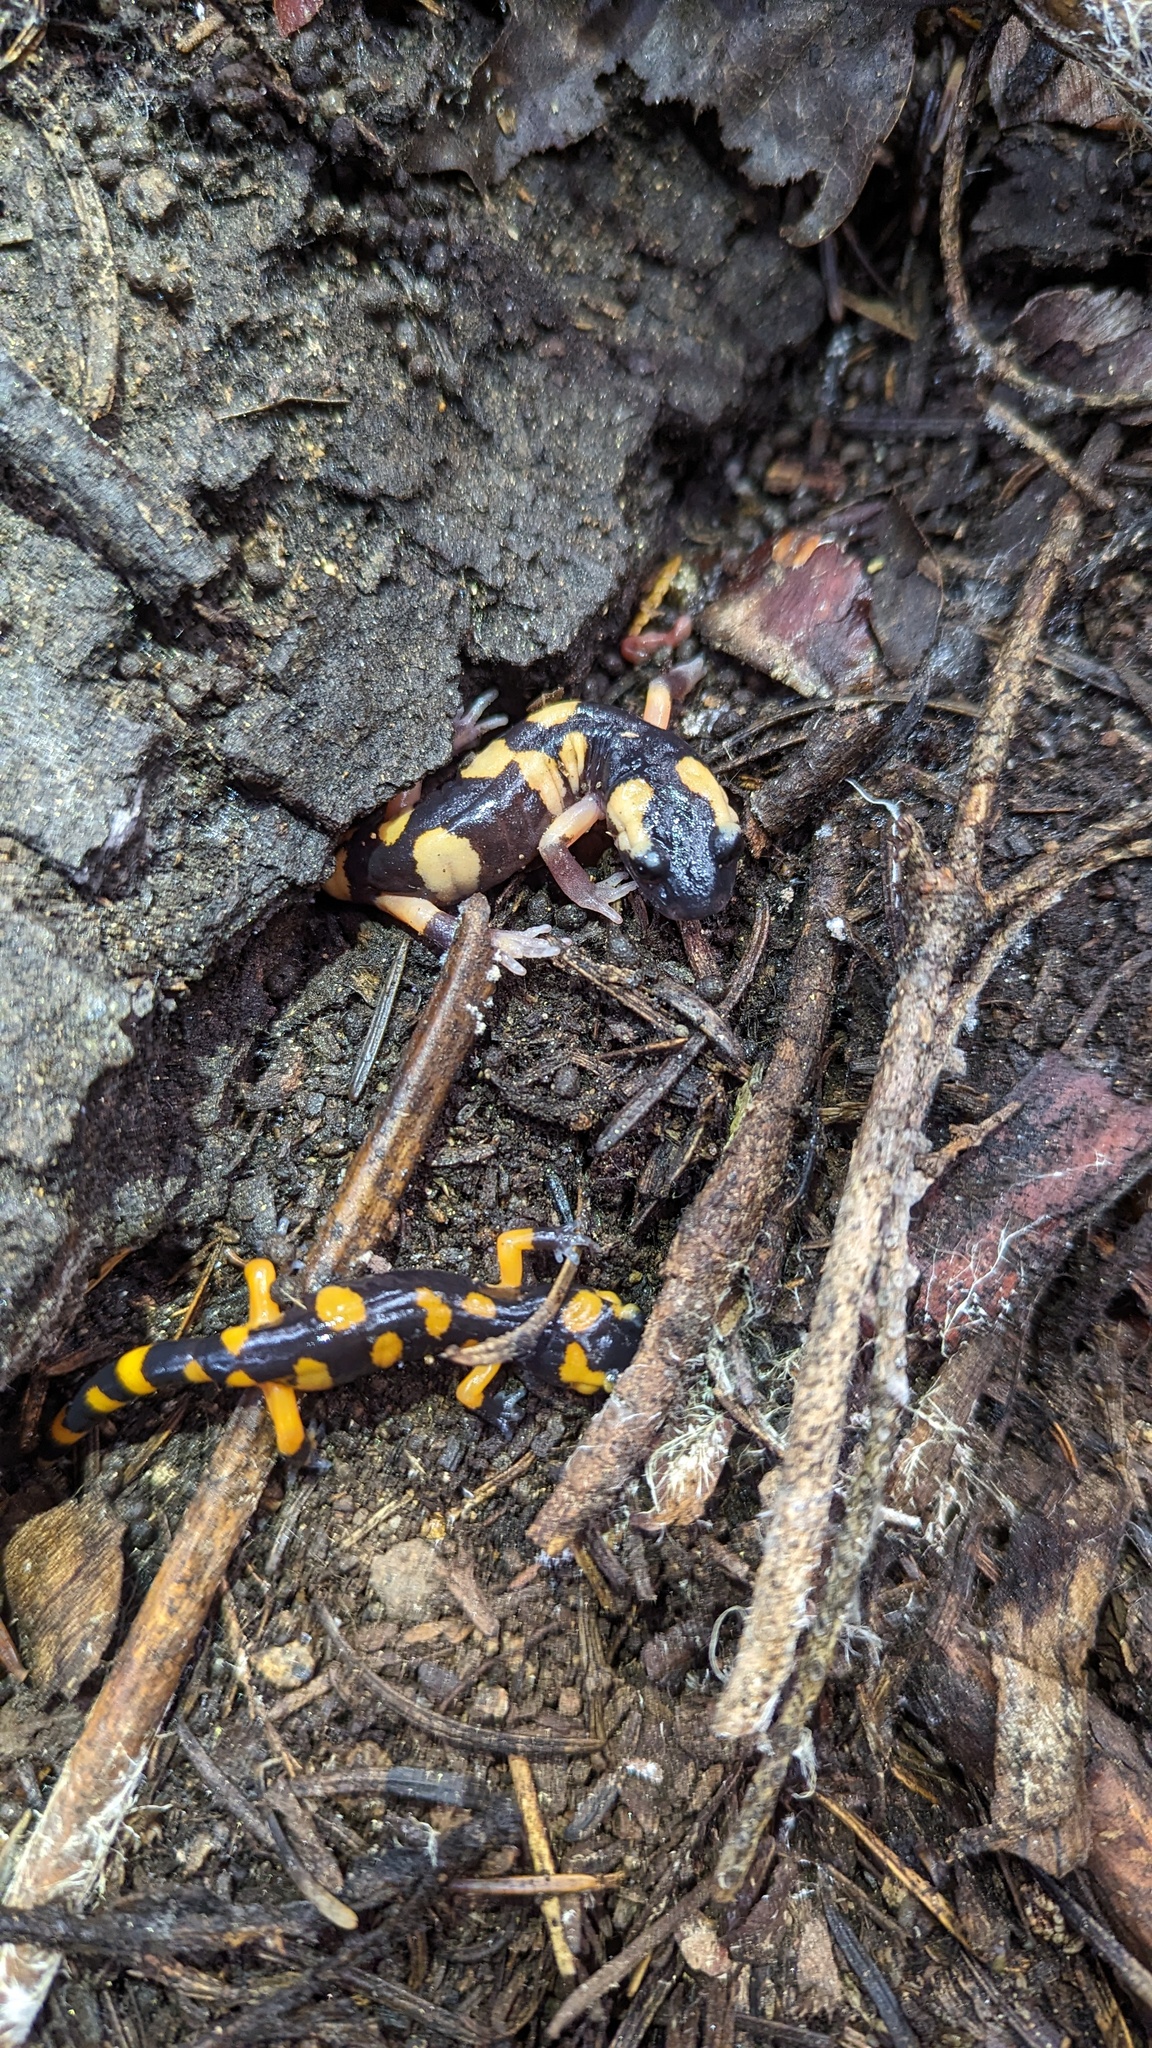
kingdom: Animalia
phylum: Chordata
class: Amphibia
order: Caudata
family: Plethodontidae
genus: Ensatina
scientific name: Ensatina eschscholtzii
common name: Ensatina
